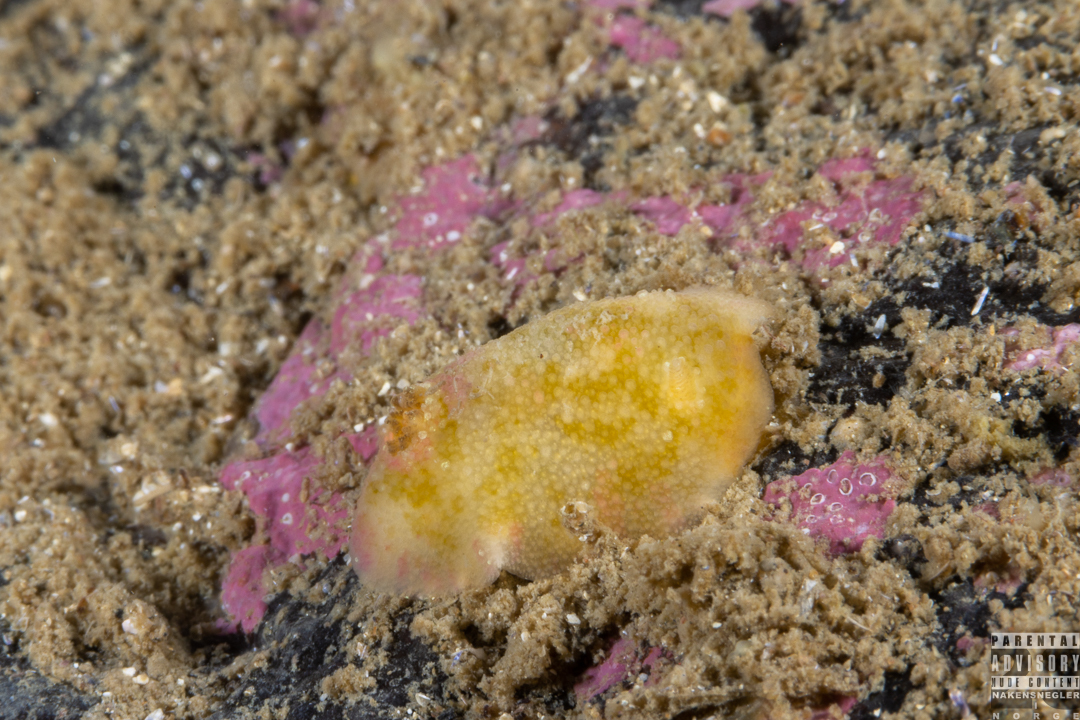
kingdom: Animalia
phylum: Mollusca
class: Gastropoda
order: Nudibranchia
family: Dorididae
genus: Doris
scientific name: Doris pseudoargus
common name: Sea lemon
